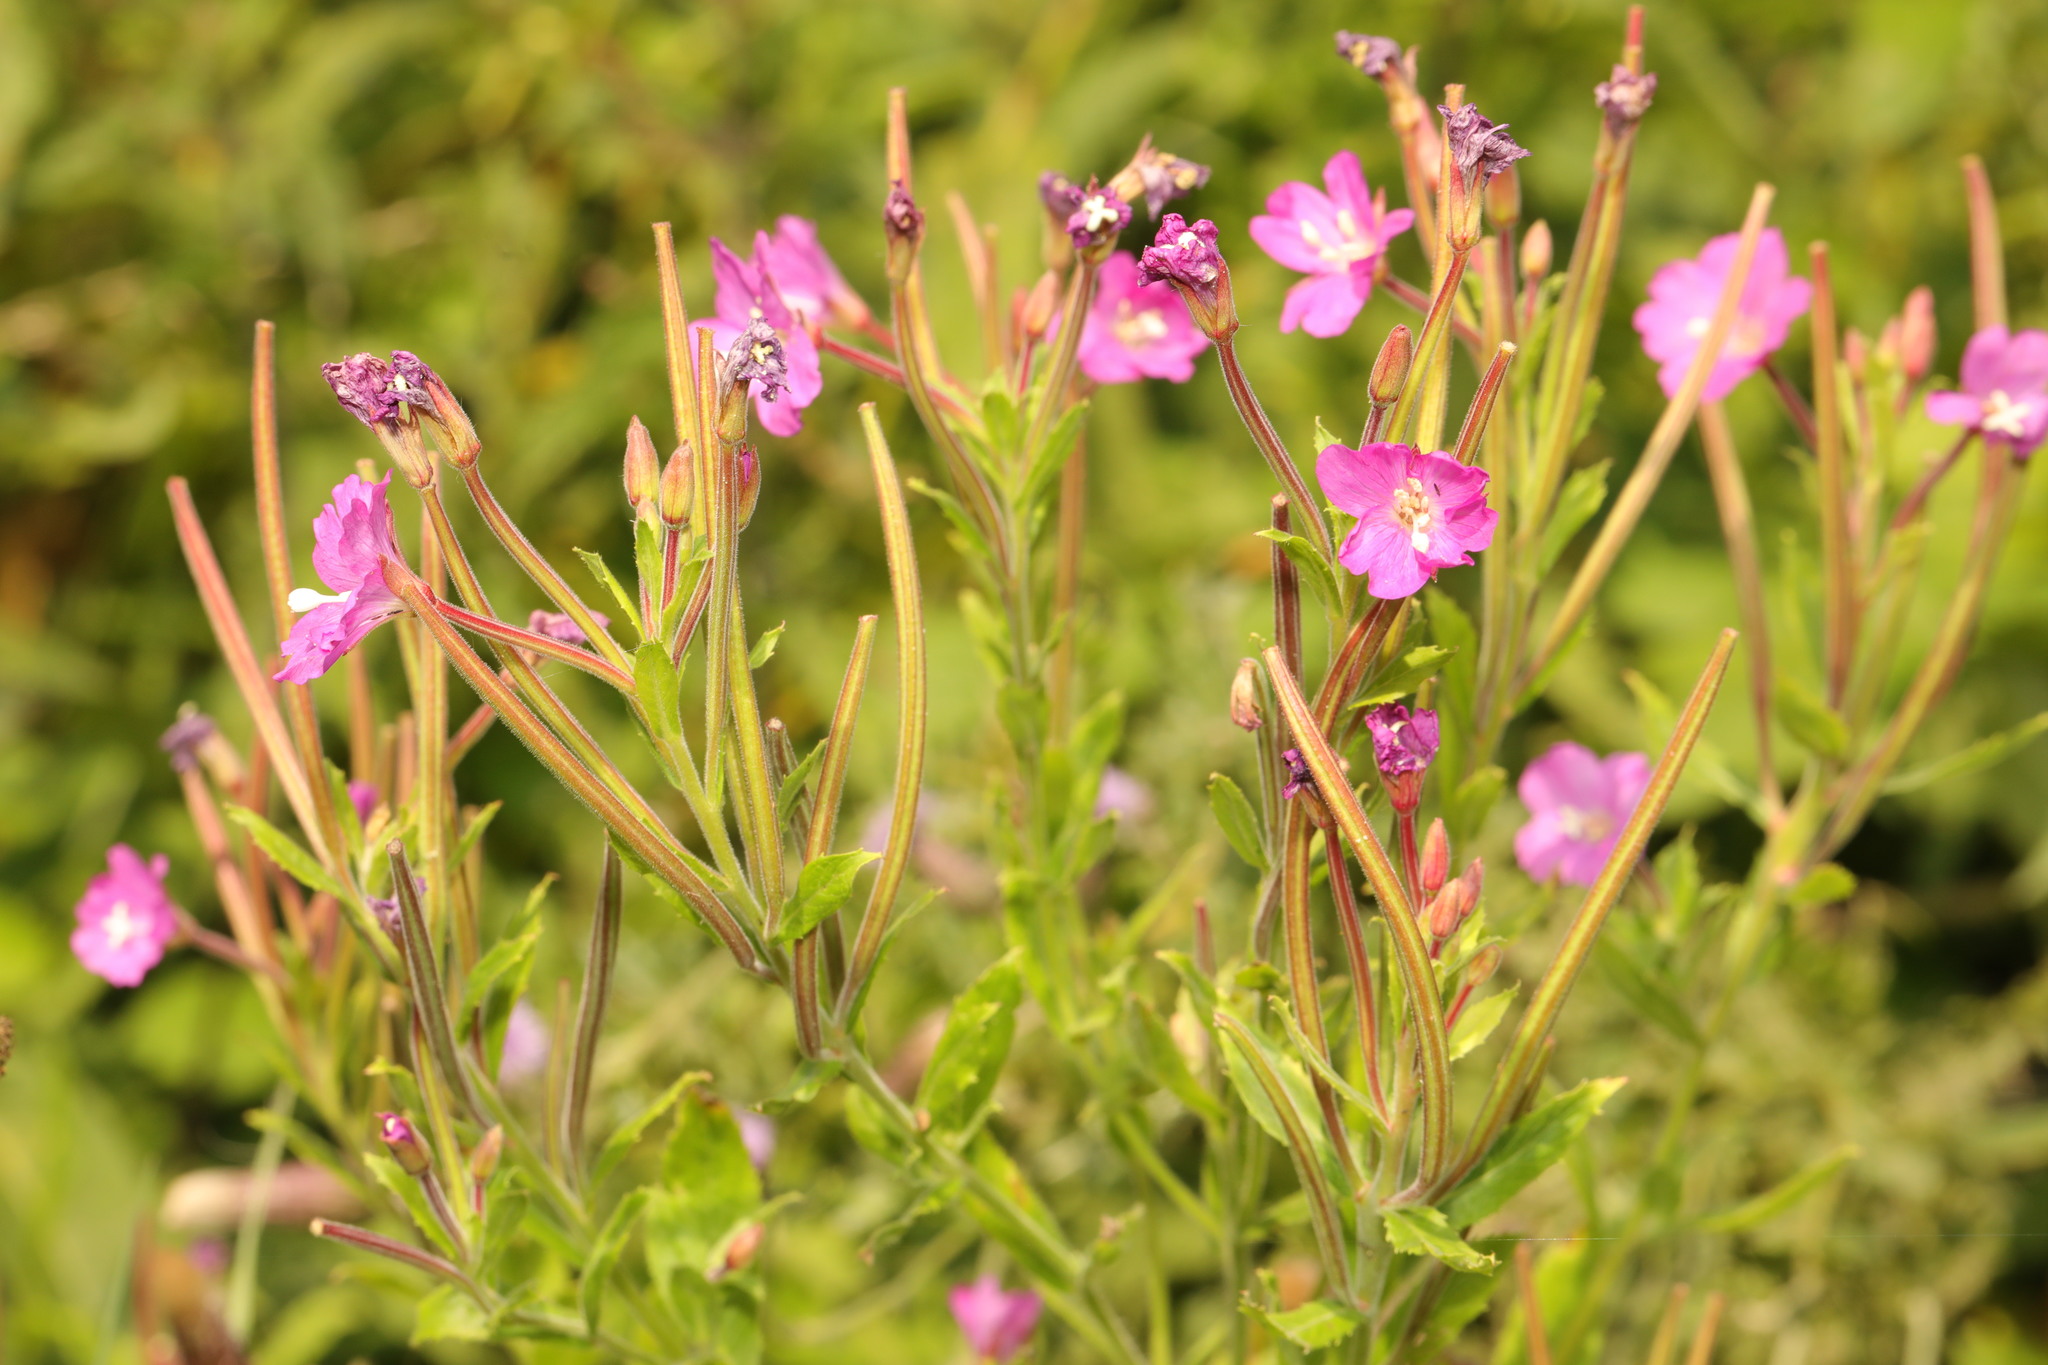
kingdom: Plantae
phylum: Tracheophyta
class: Magnoliopsida
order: Myrtales
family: Onagraceae
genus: Epilobium
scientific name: Epilobium hirsutum
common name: Great willowherb
